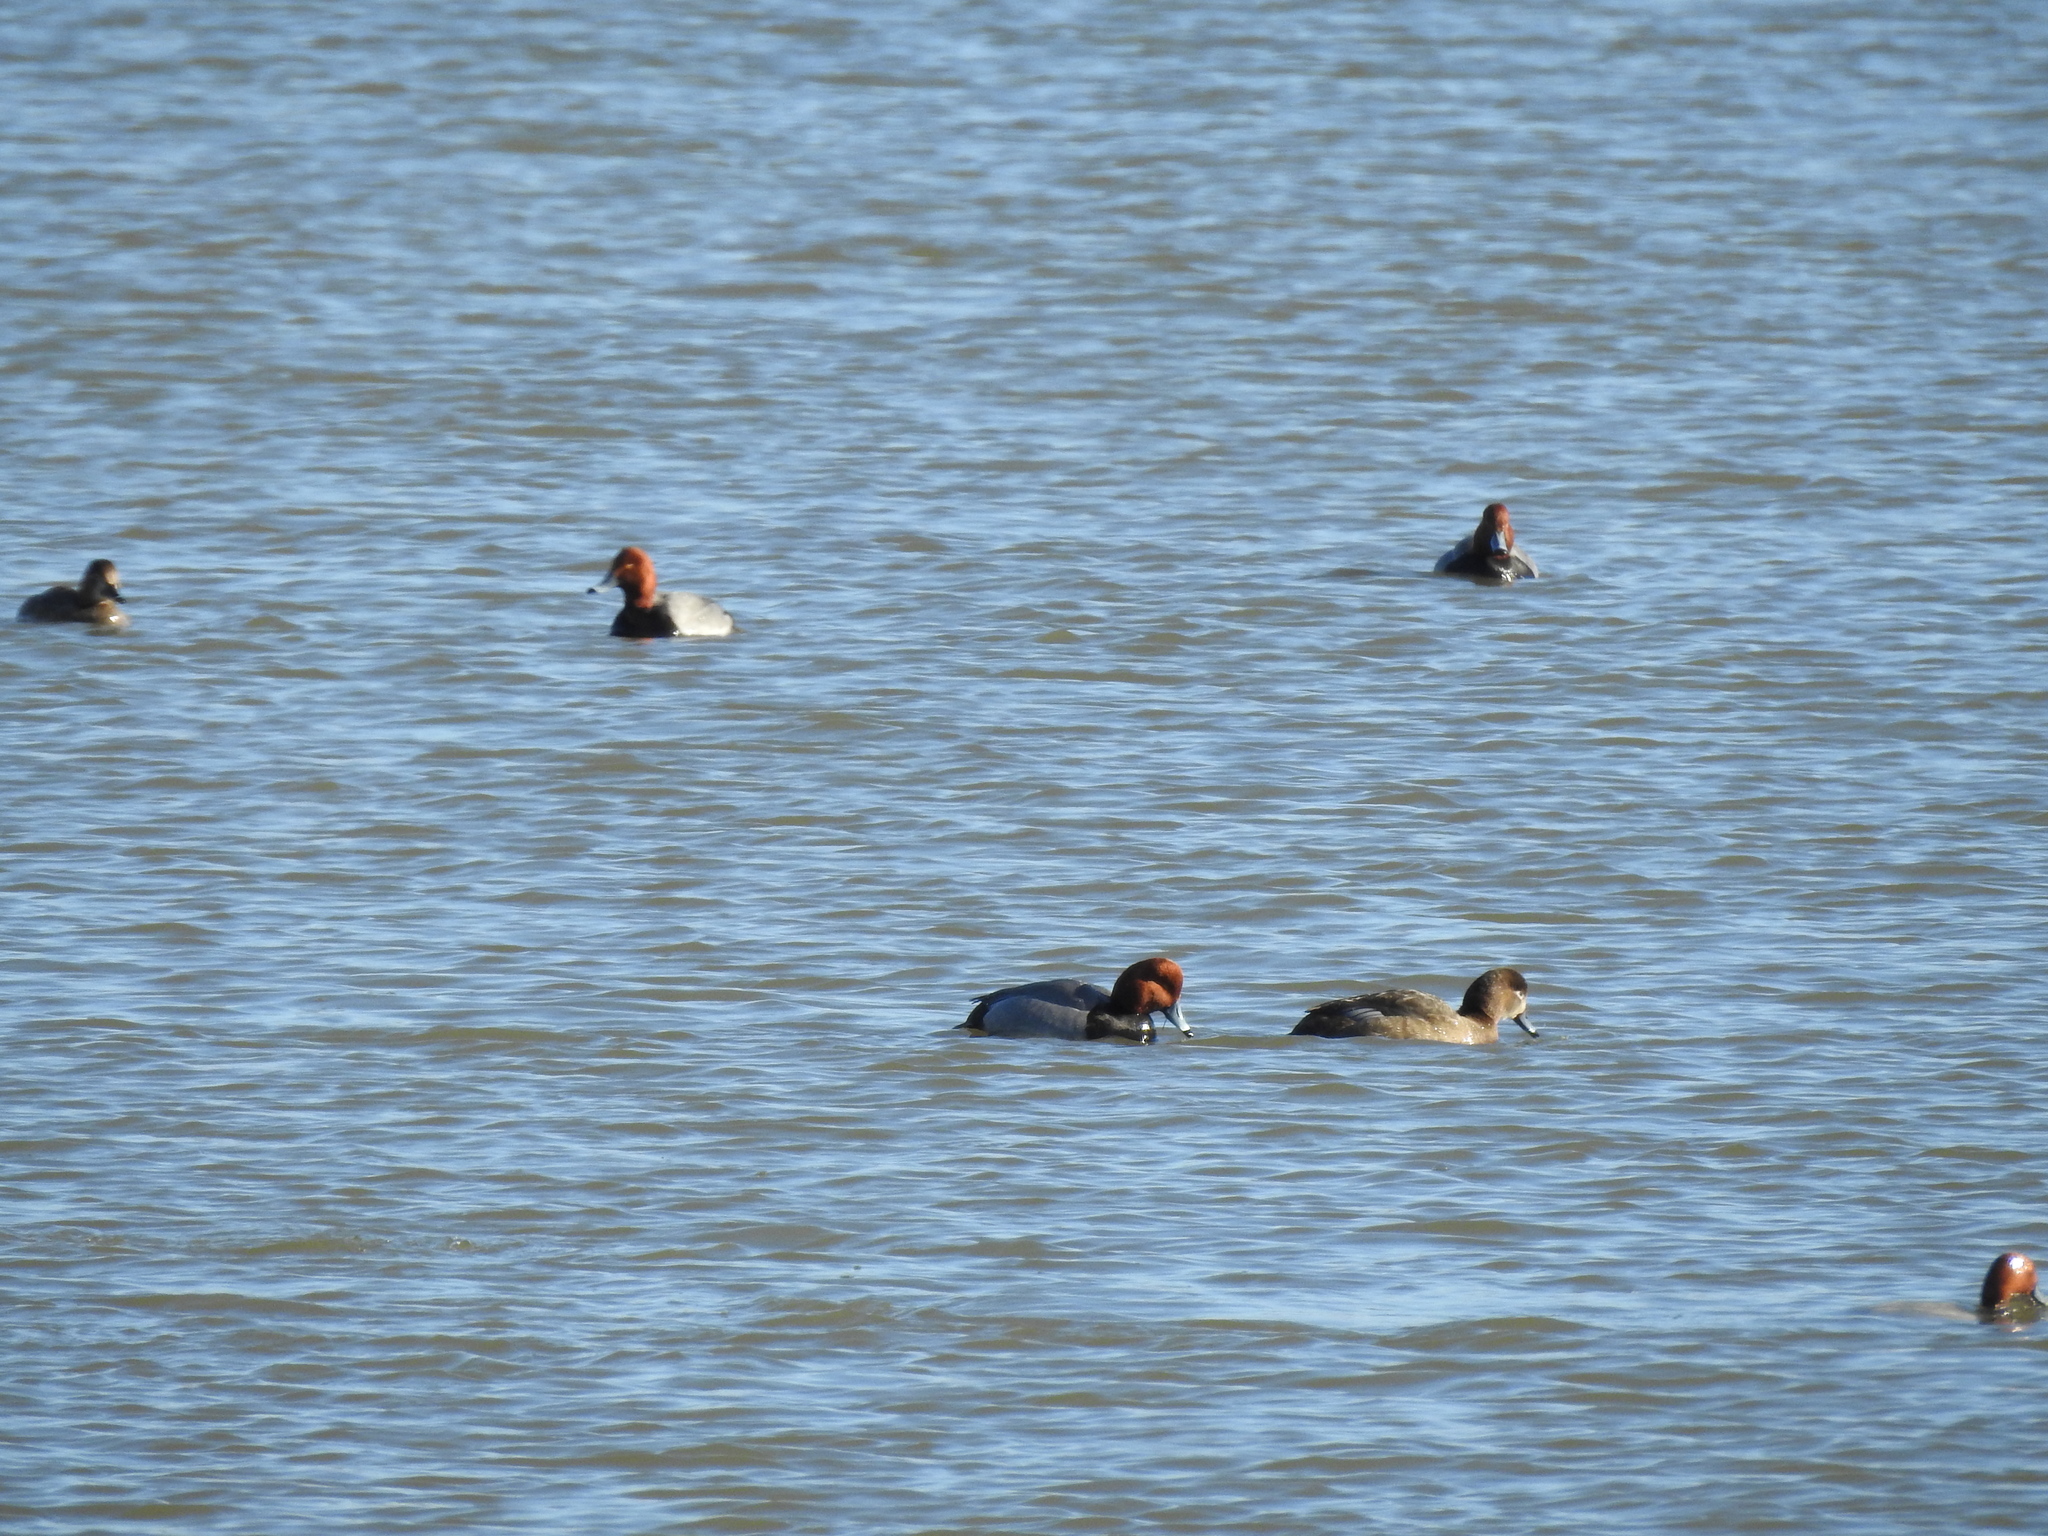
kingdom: Animalia
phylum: Chordata
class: Aves
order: Anseriformes
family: Anatidae
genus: Aythya
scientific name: Aythya americana
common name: Redhead
